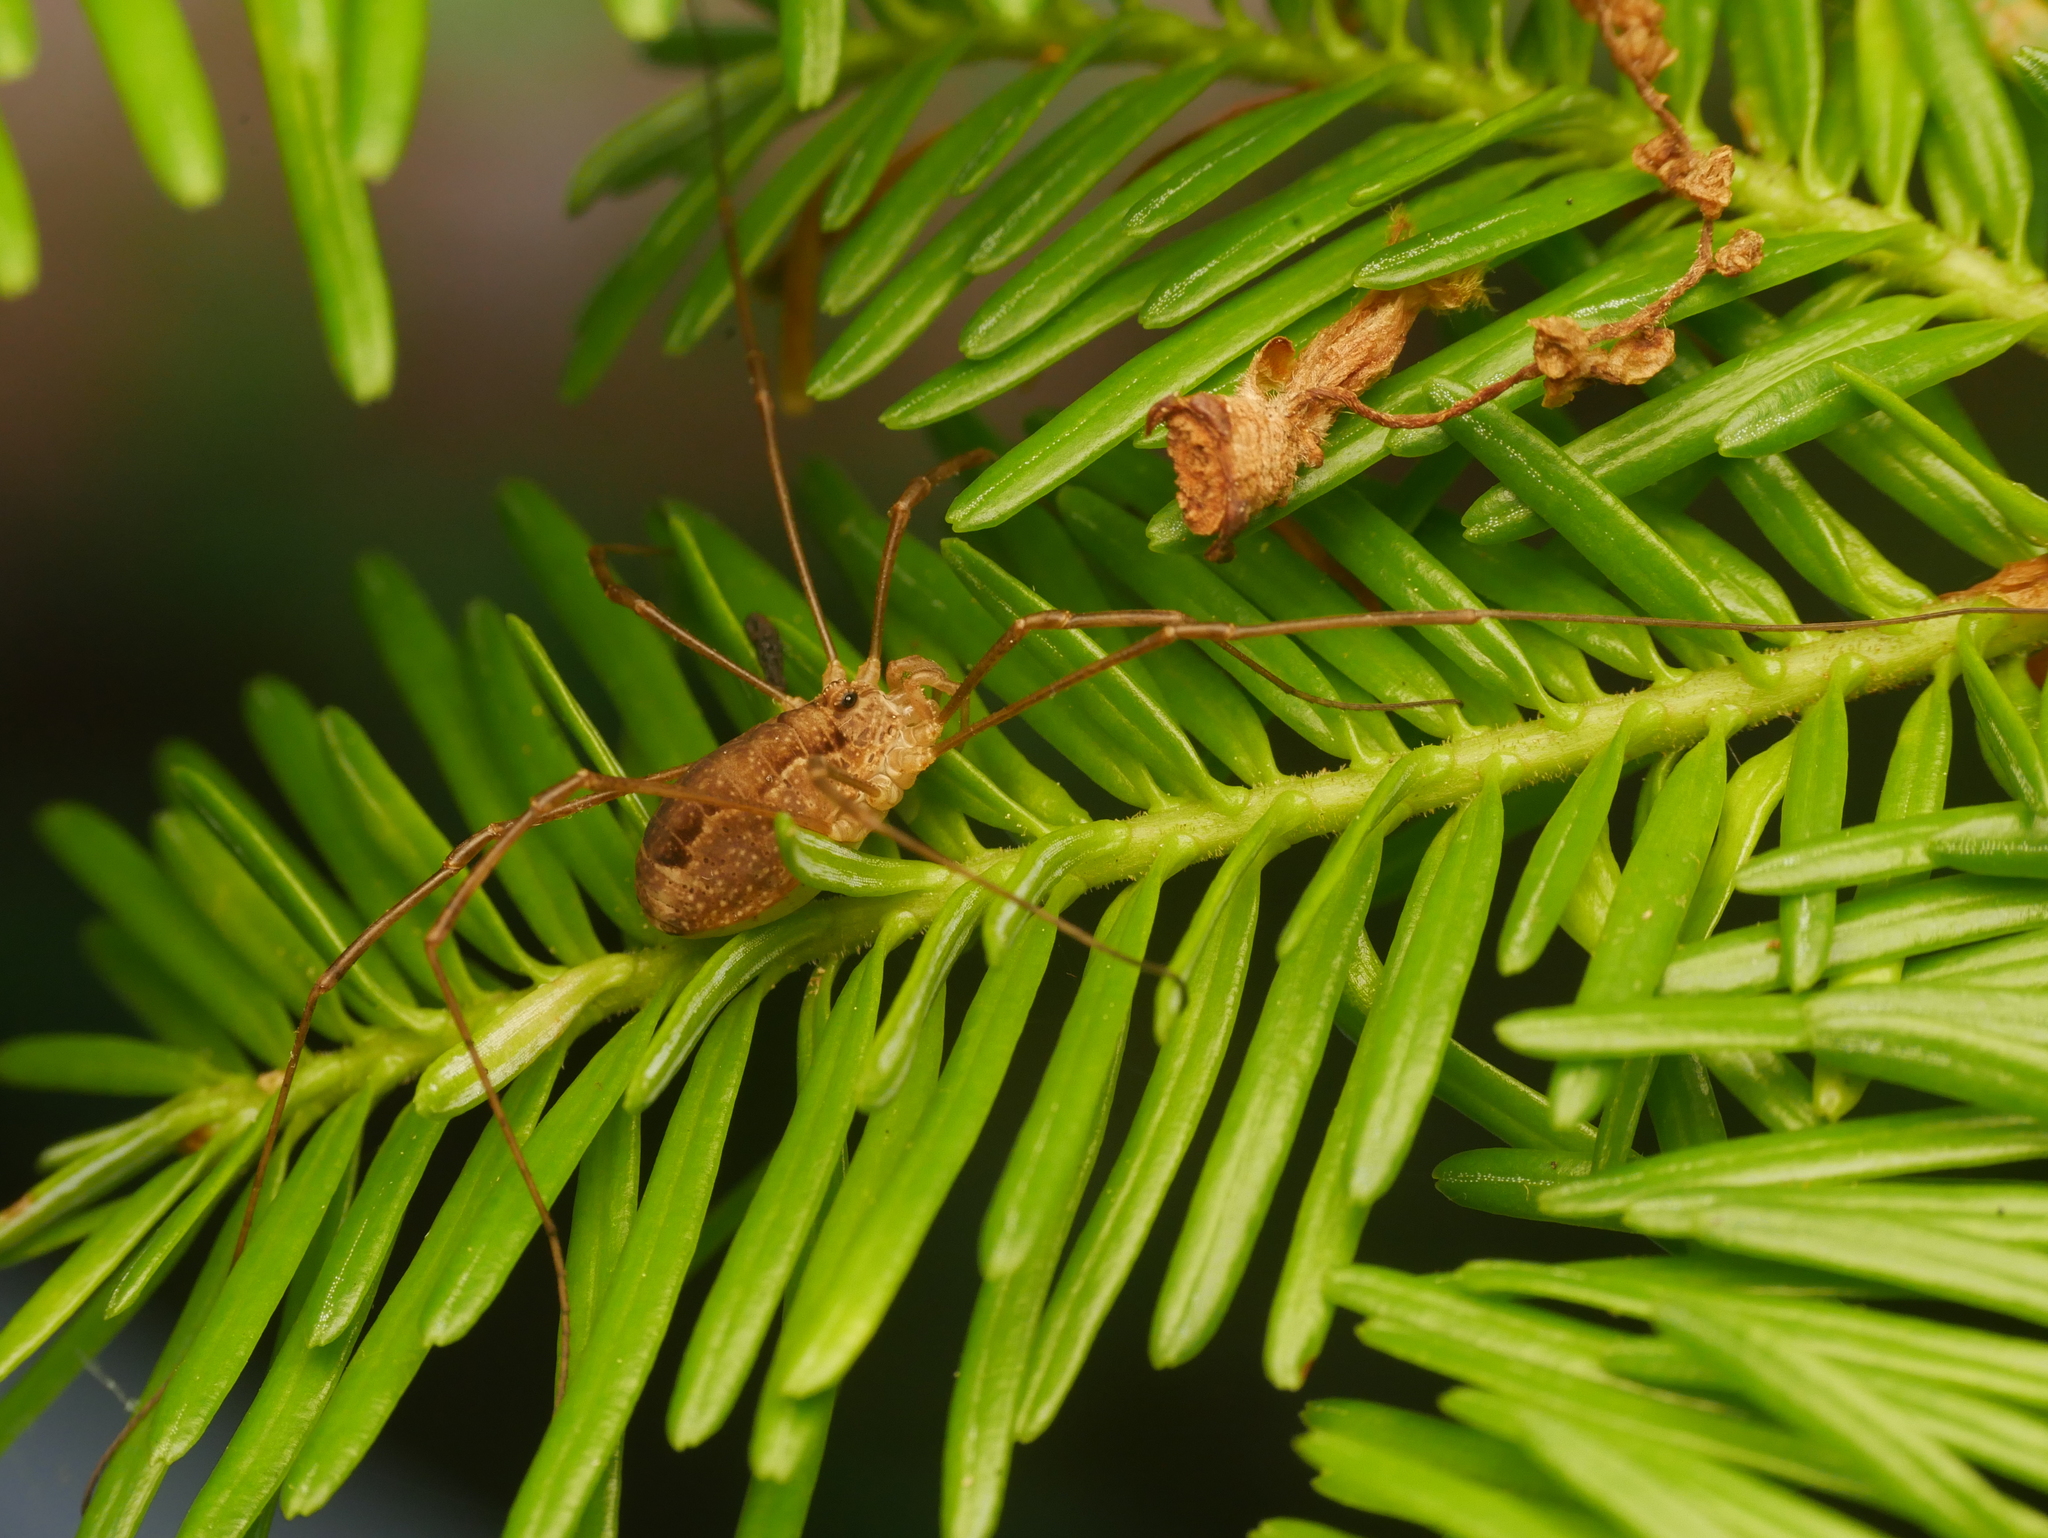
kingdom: Animalia
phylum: Arthropoda
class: Arachnida
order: Opiliones
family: Phalangiidae
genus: Rilaena
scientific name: Rilaena triangularis
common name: Spring harvestman
